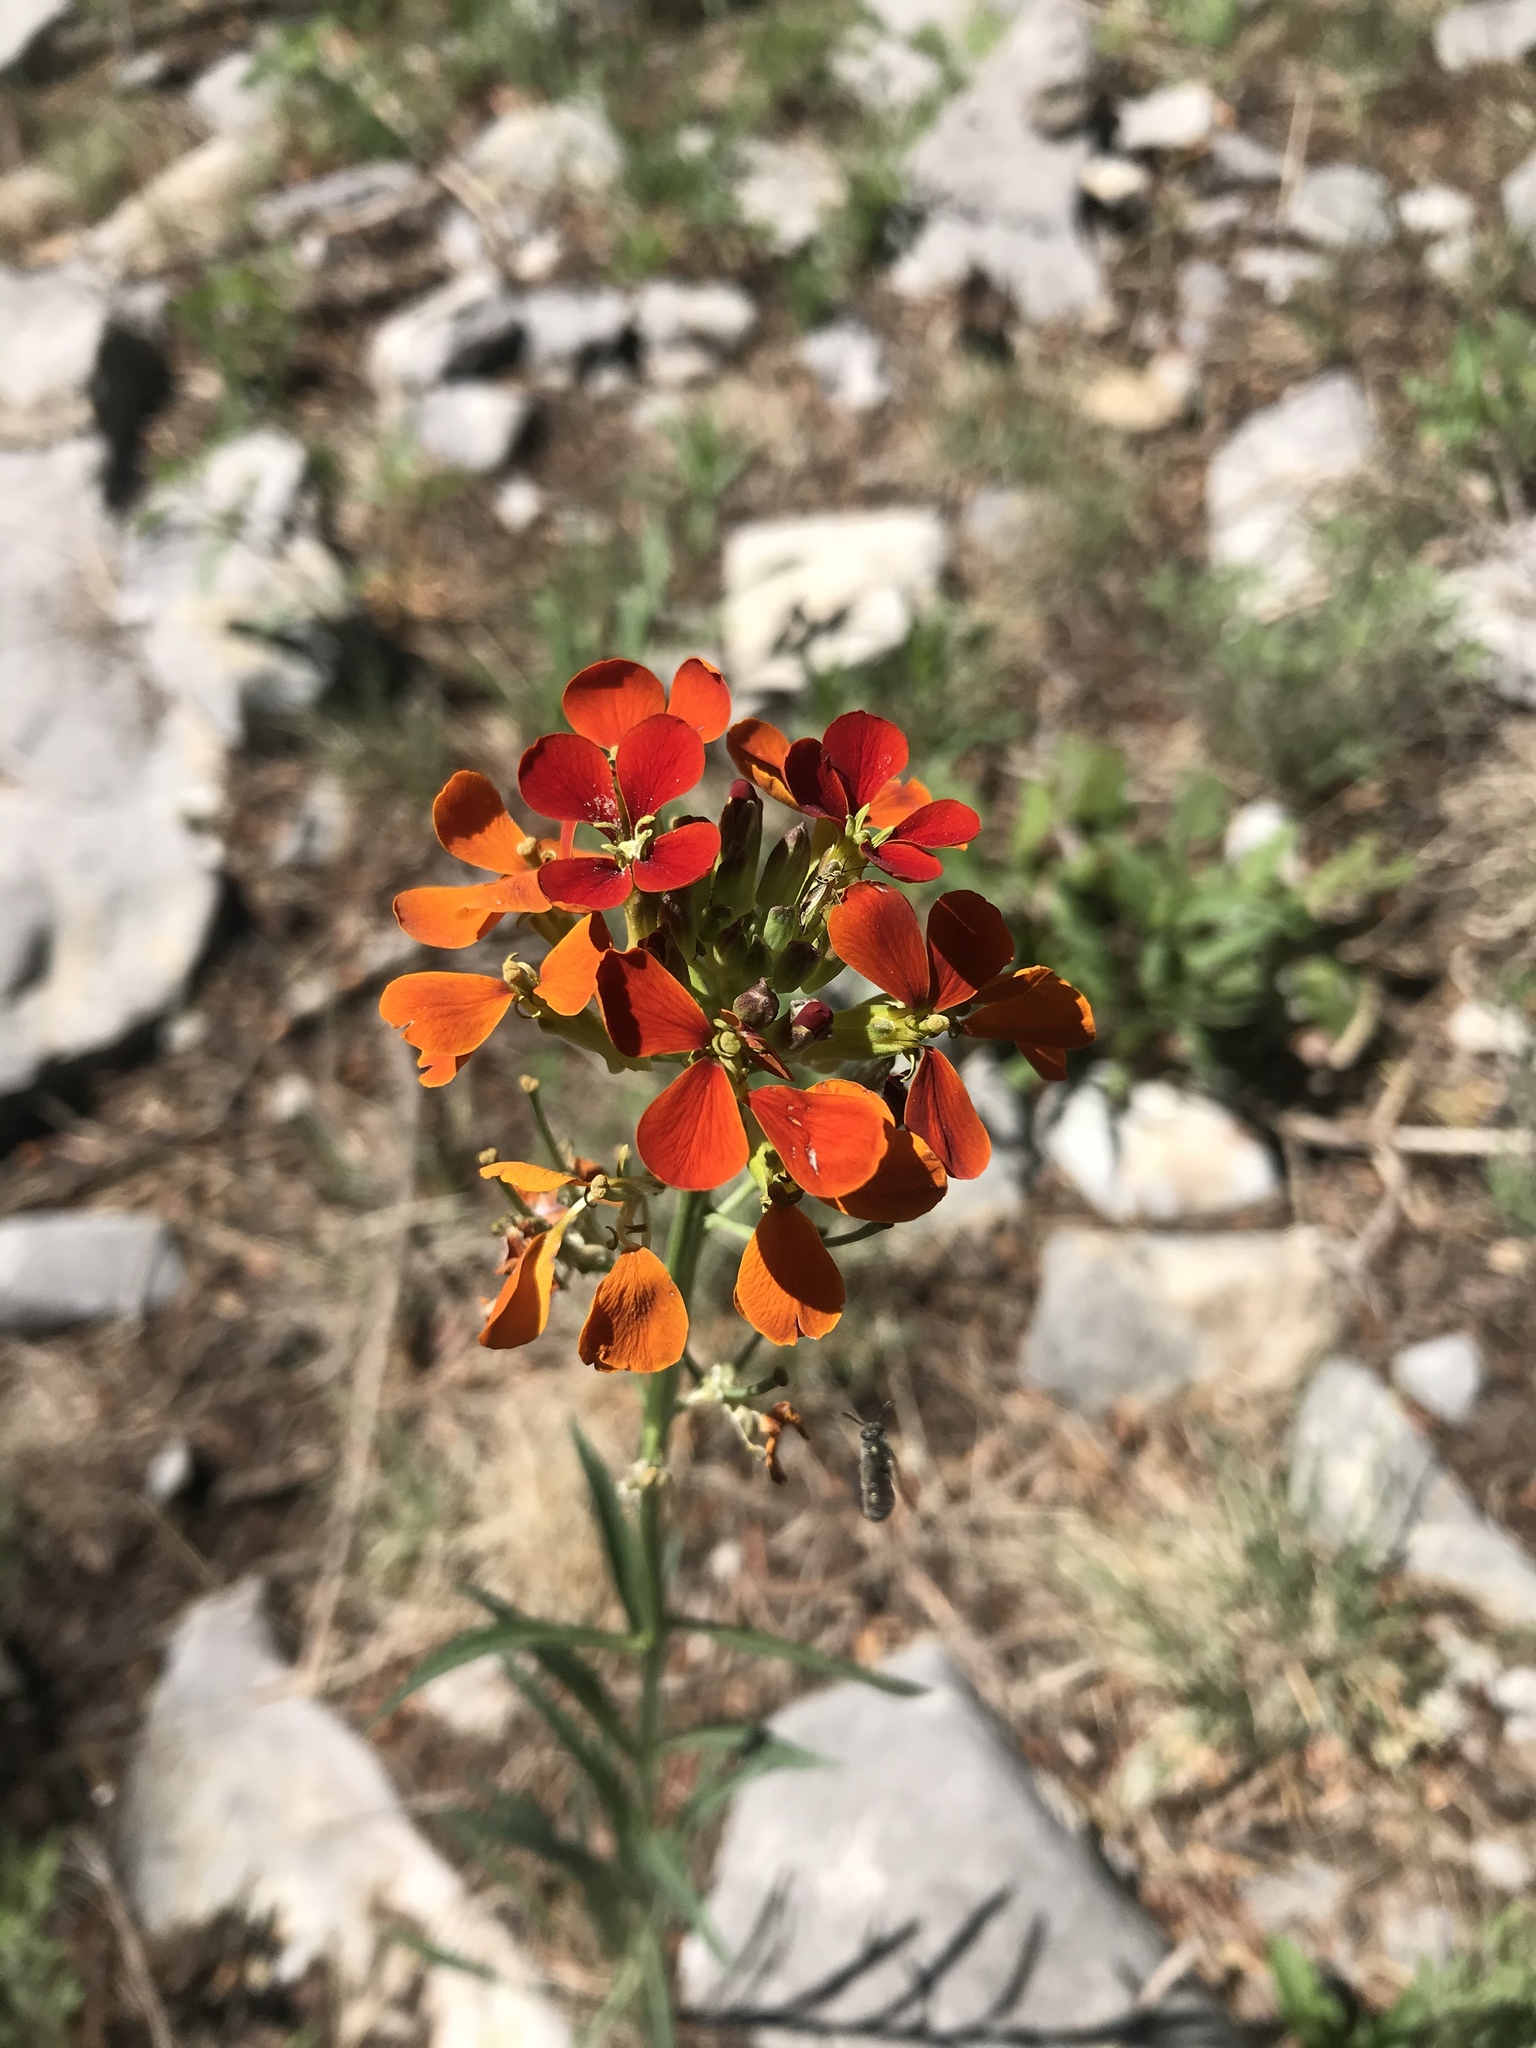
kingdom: Plantae
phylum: Tracheophyta
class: Magnoliopsida
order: Brassicales
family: Brassicaceae
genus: Erysimum
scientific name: Erysimum capitatum
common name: Western wallflower
